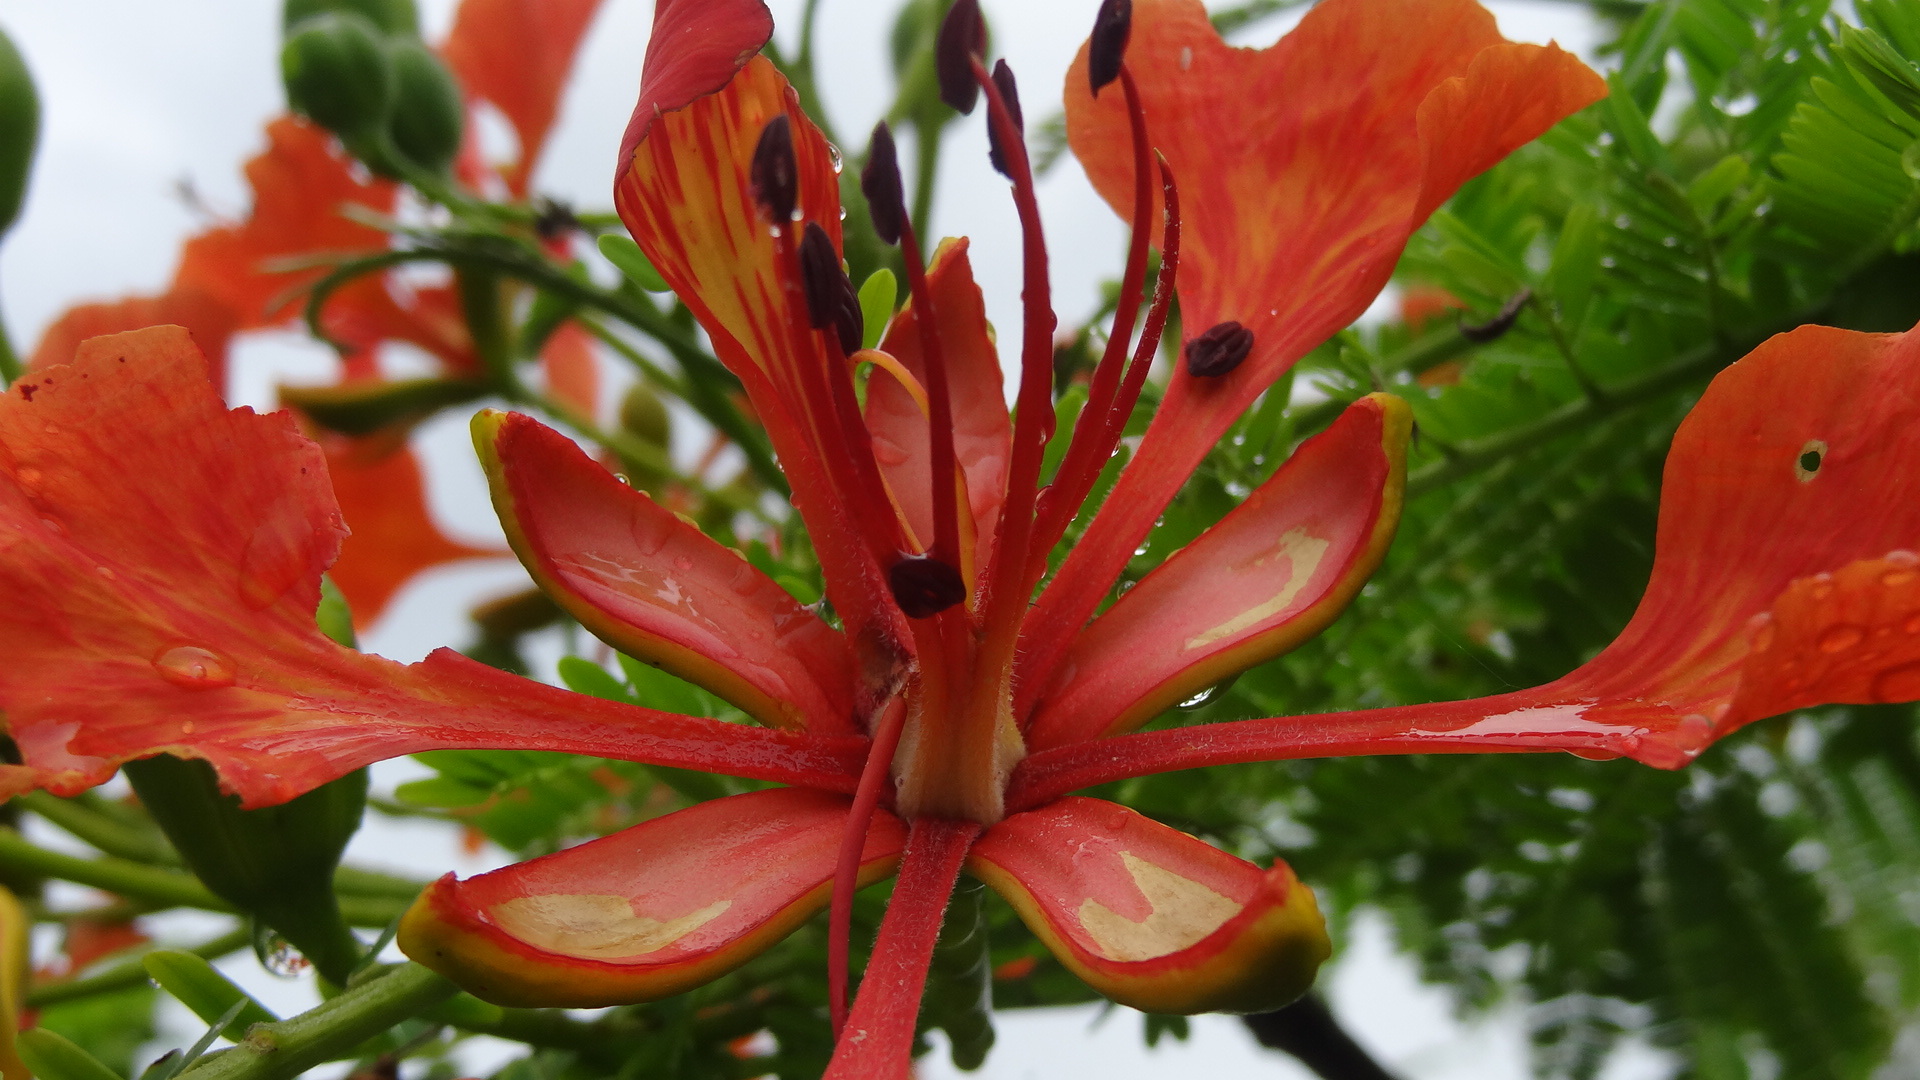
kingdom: Plantae
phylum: Tracheophyta
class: Magnoliopsida
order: Fabales
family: Fabaceae
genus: Delonix
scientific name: Delonix regia
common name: Royal poinciana
